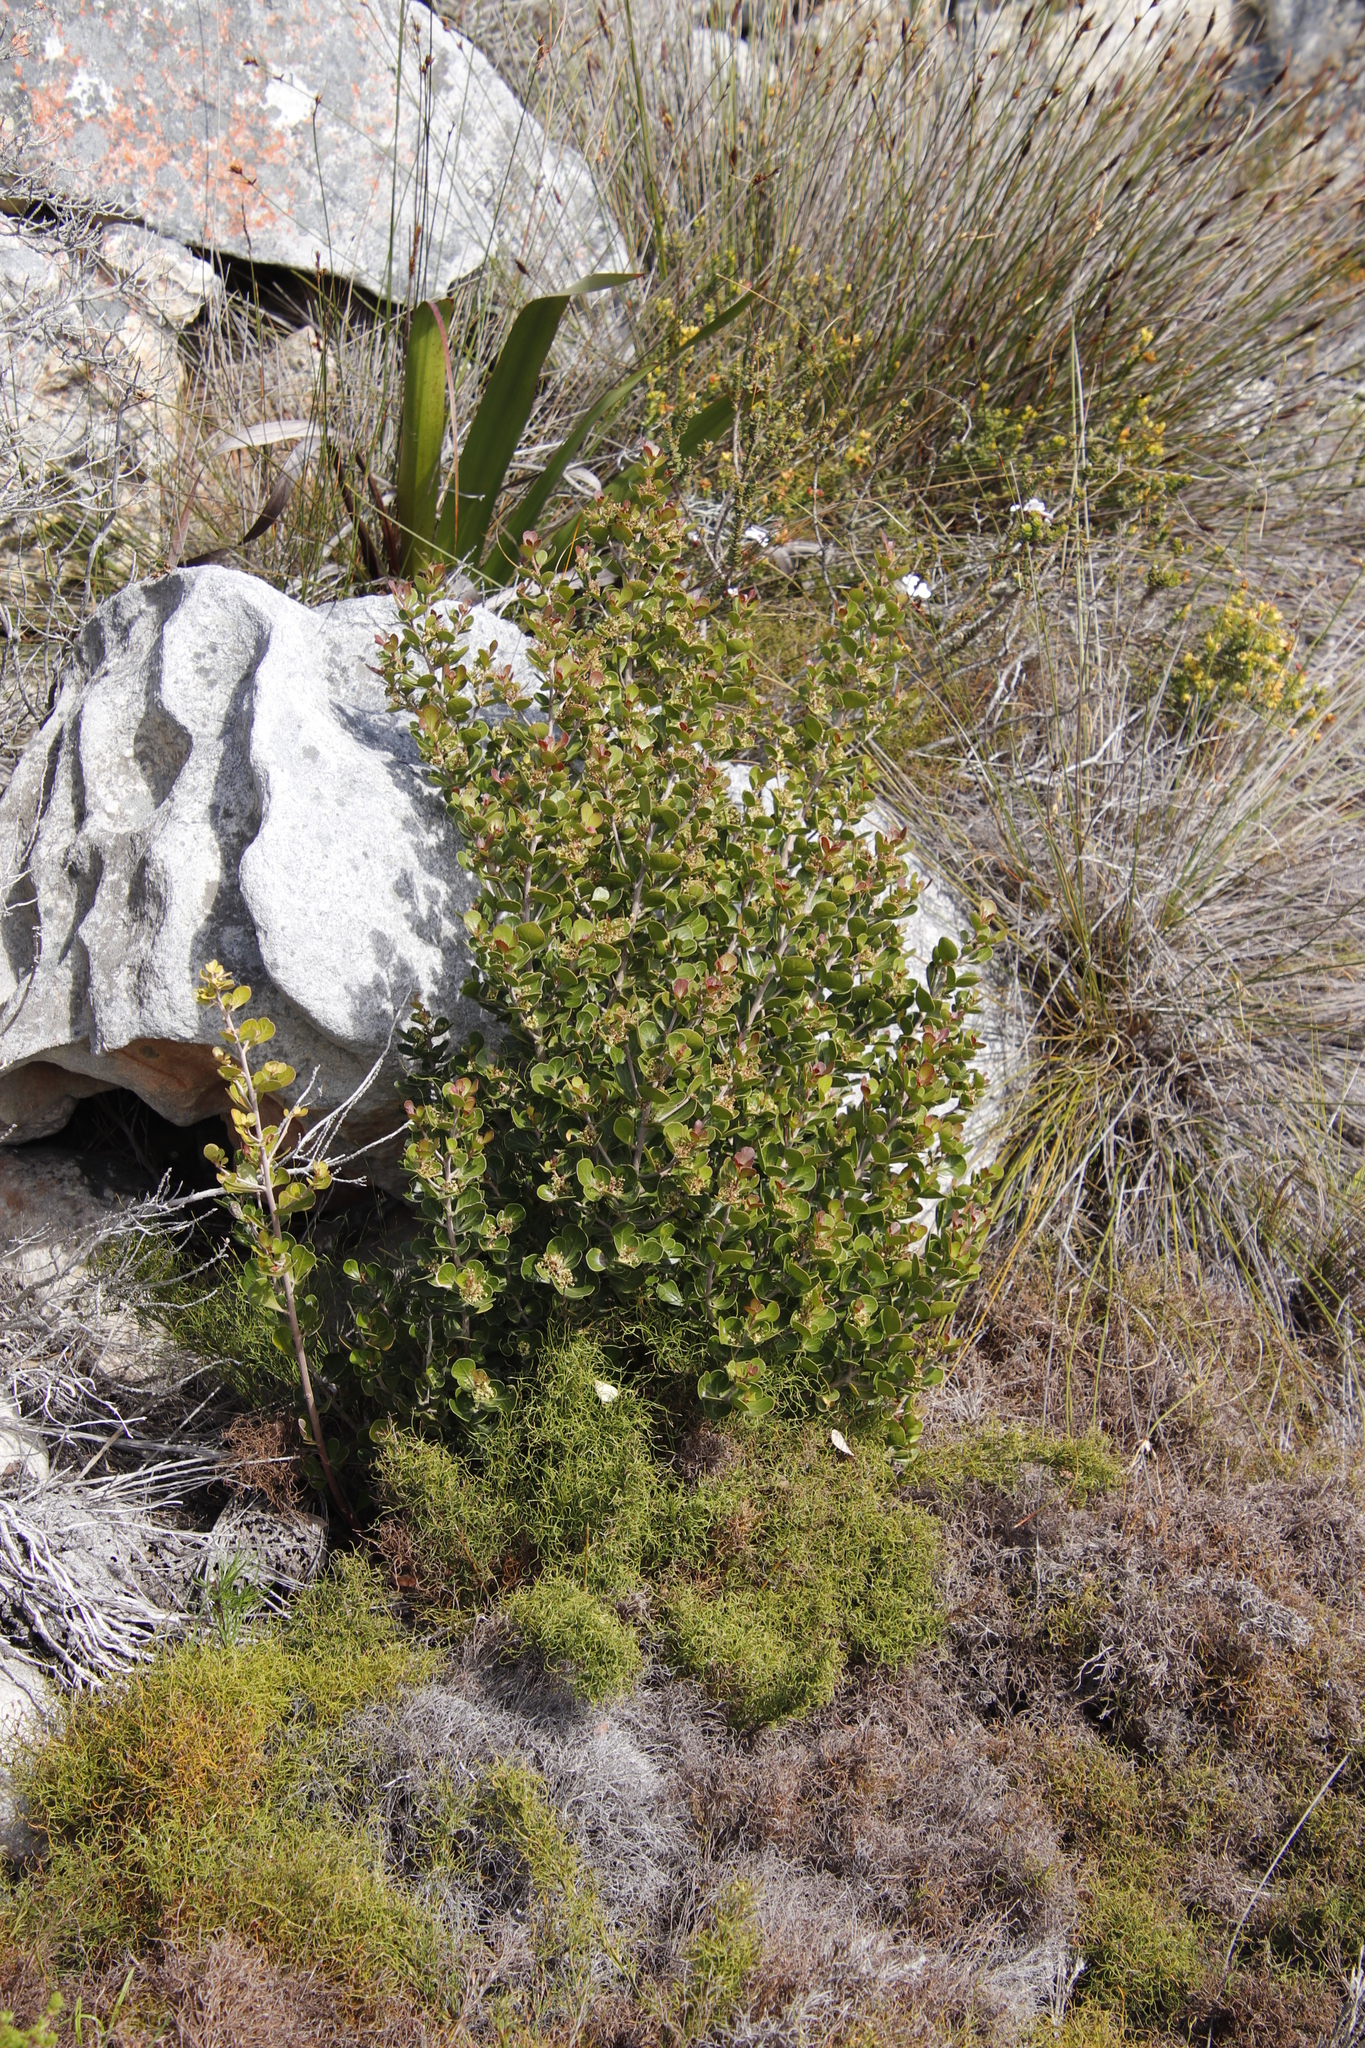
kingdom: Plantae
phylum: Tracheophyta
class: Magnoliopsida
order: Sapindales
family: Anacardiaceae
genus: Searsia
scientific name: Searsia lucida
